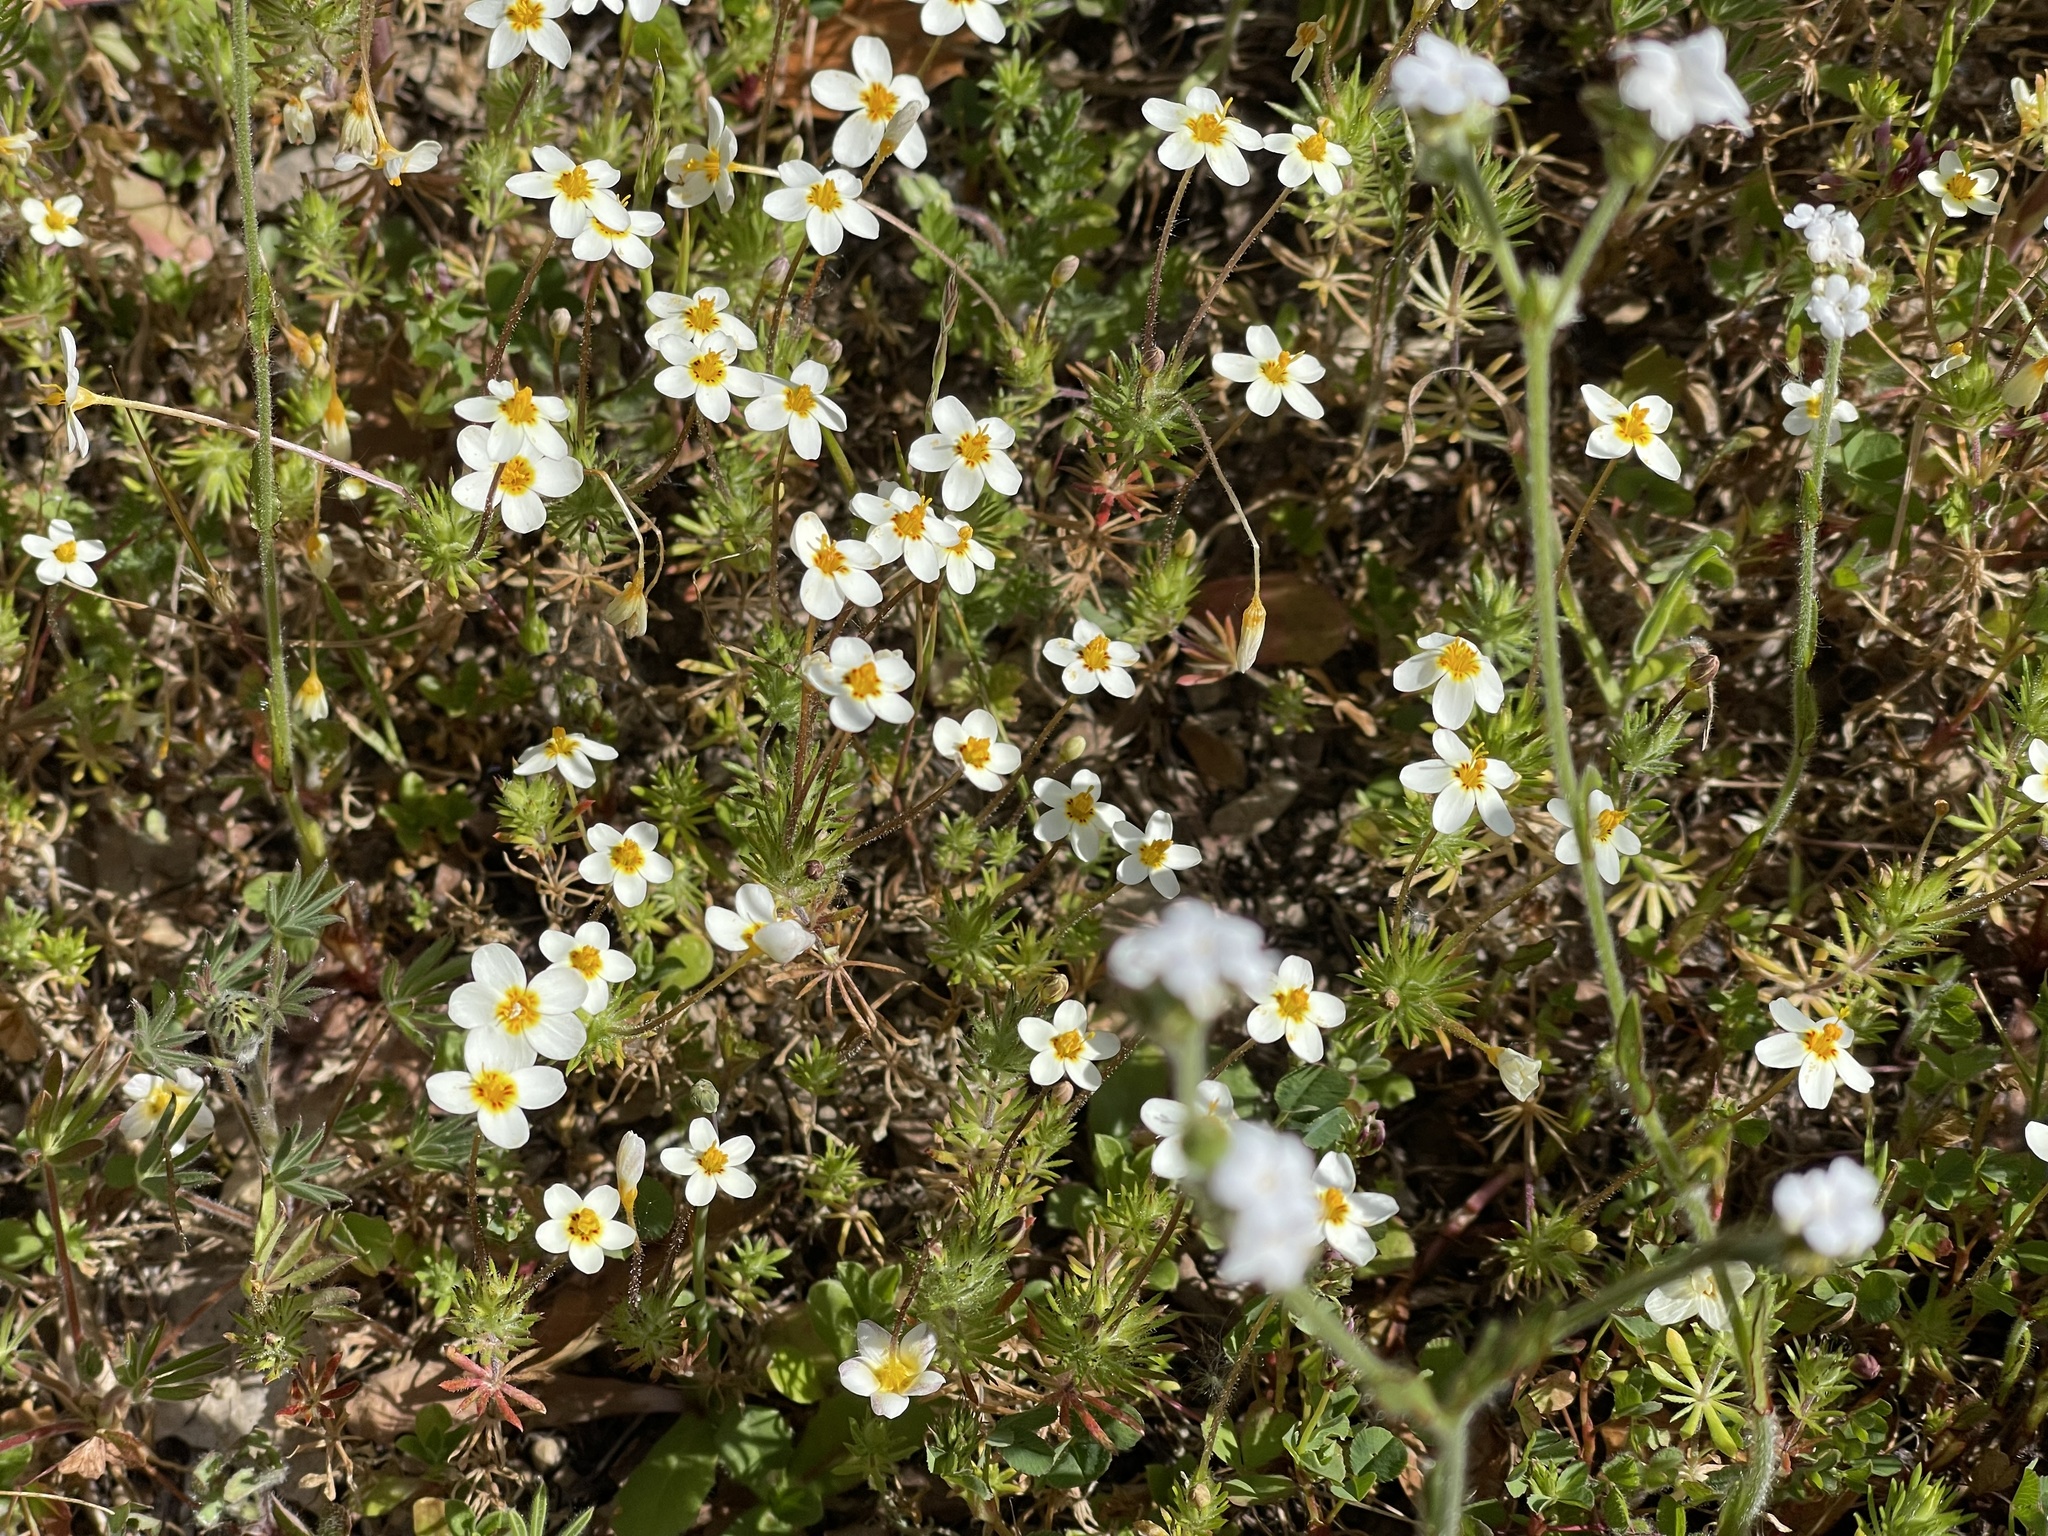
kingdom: Plantae
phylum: Tracheophyta
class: Magnoliopsida
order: Ericales
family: Polemoniaceae
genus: Leptosiphon
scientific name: Leptosiphon parviflorus
